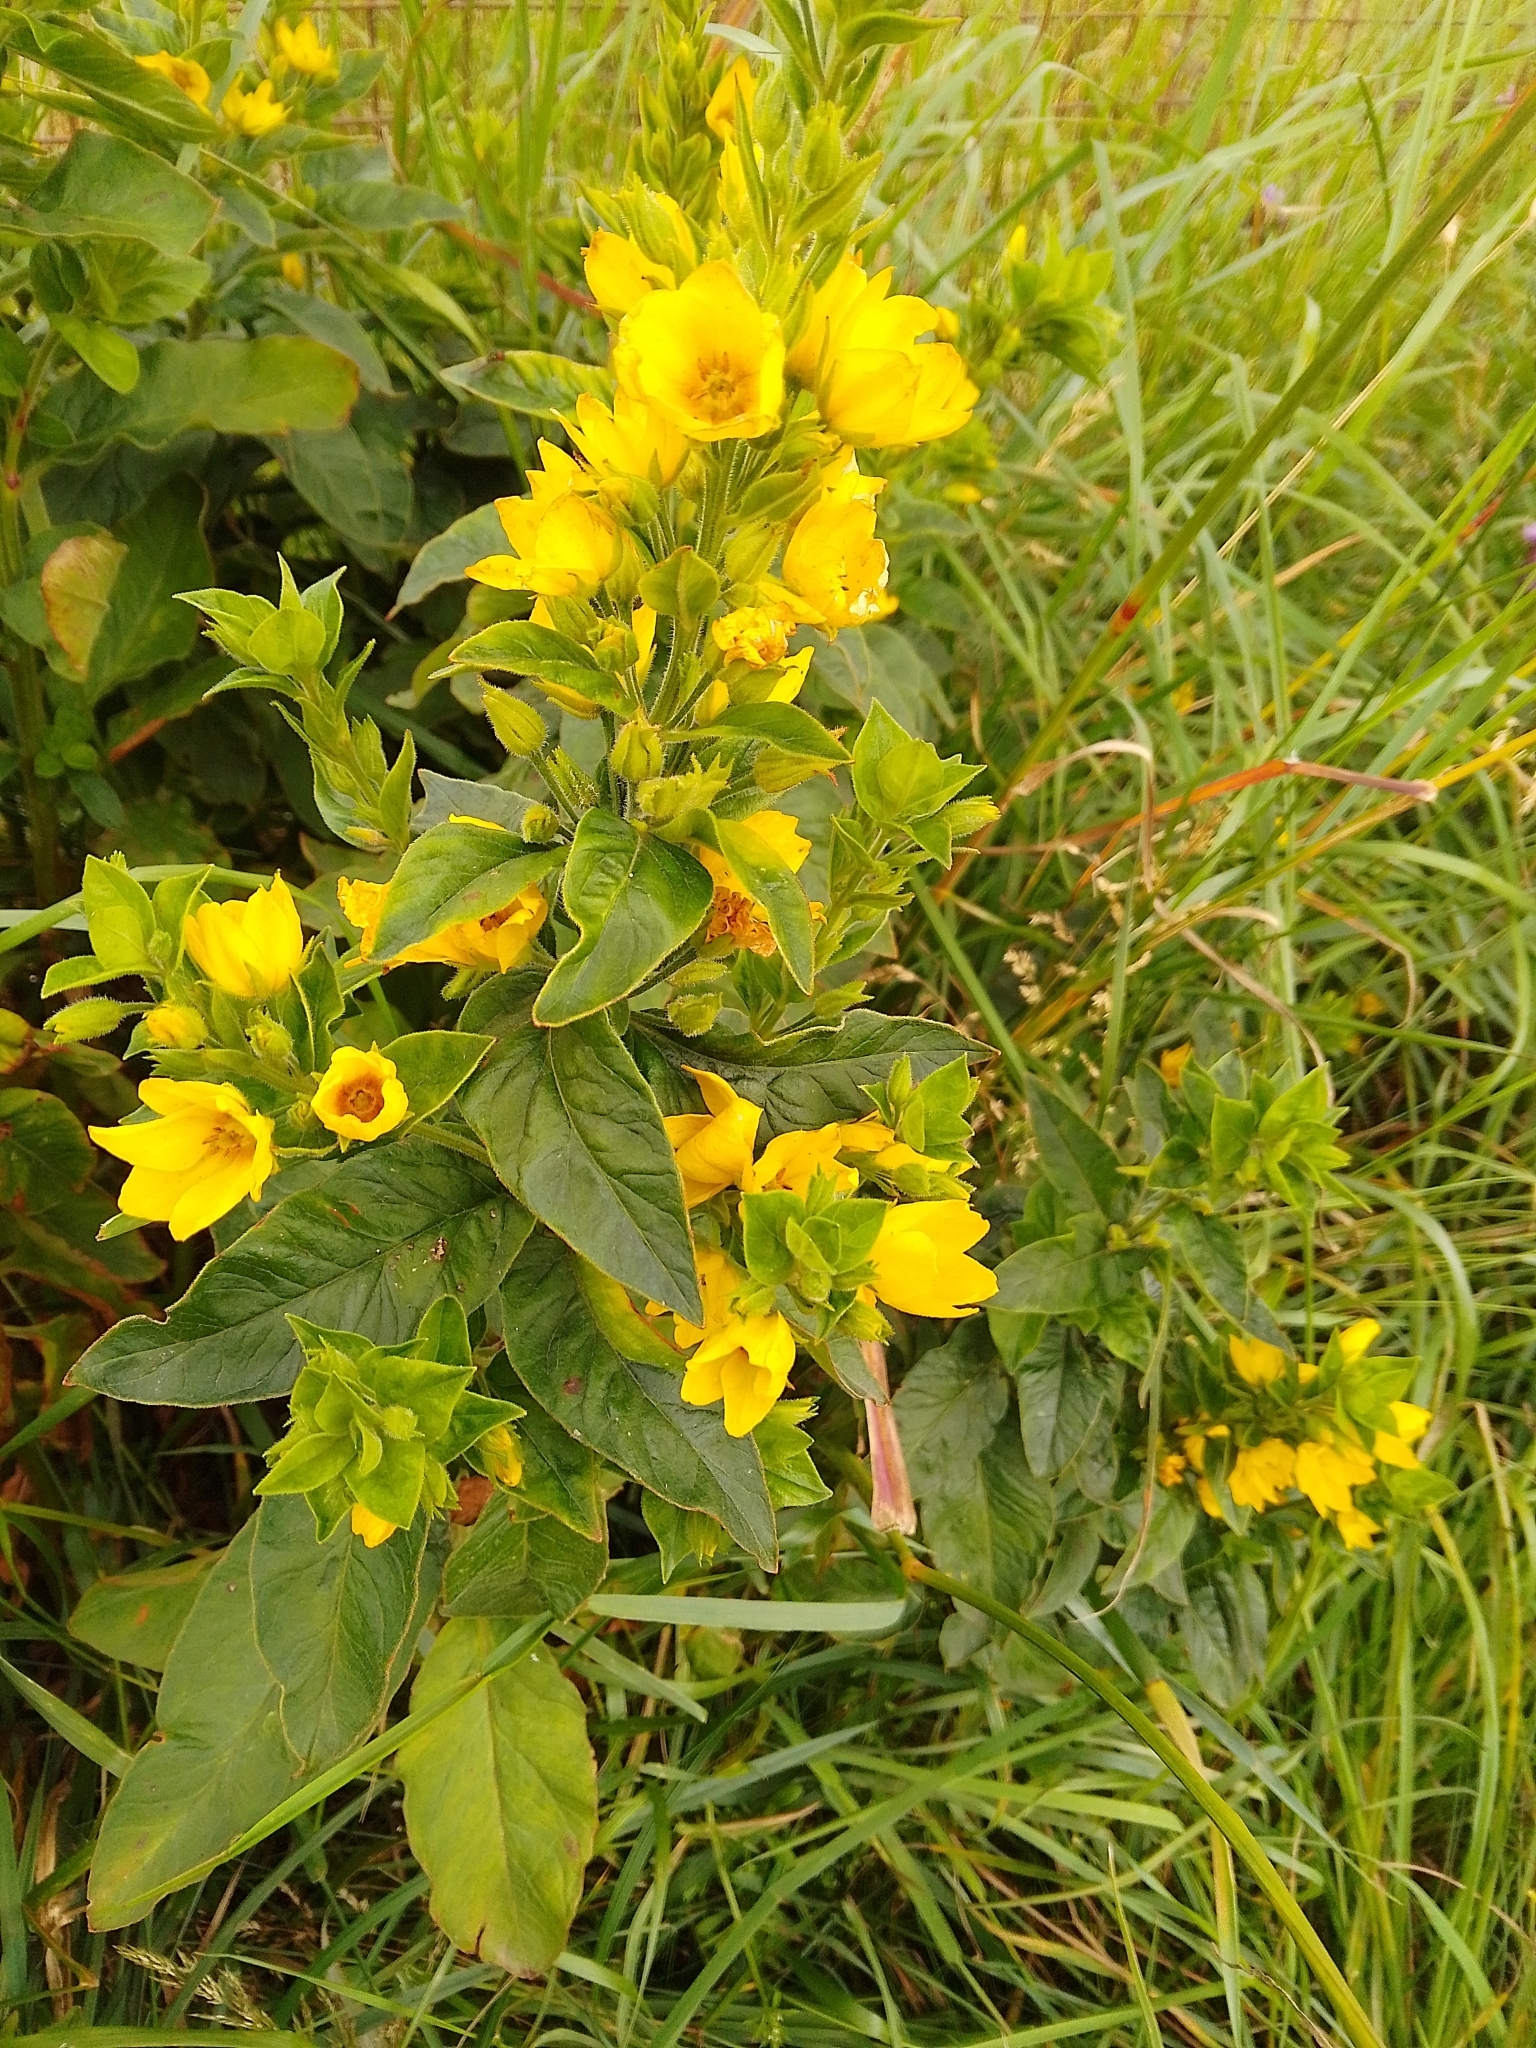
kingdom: Plantae
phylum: Tracheophyta
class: Magnoliopsida
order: Ericales
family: Primulaceae
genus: Lysimachia
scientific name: Lysimachia punctata
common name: Dotted loosestrife
